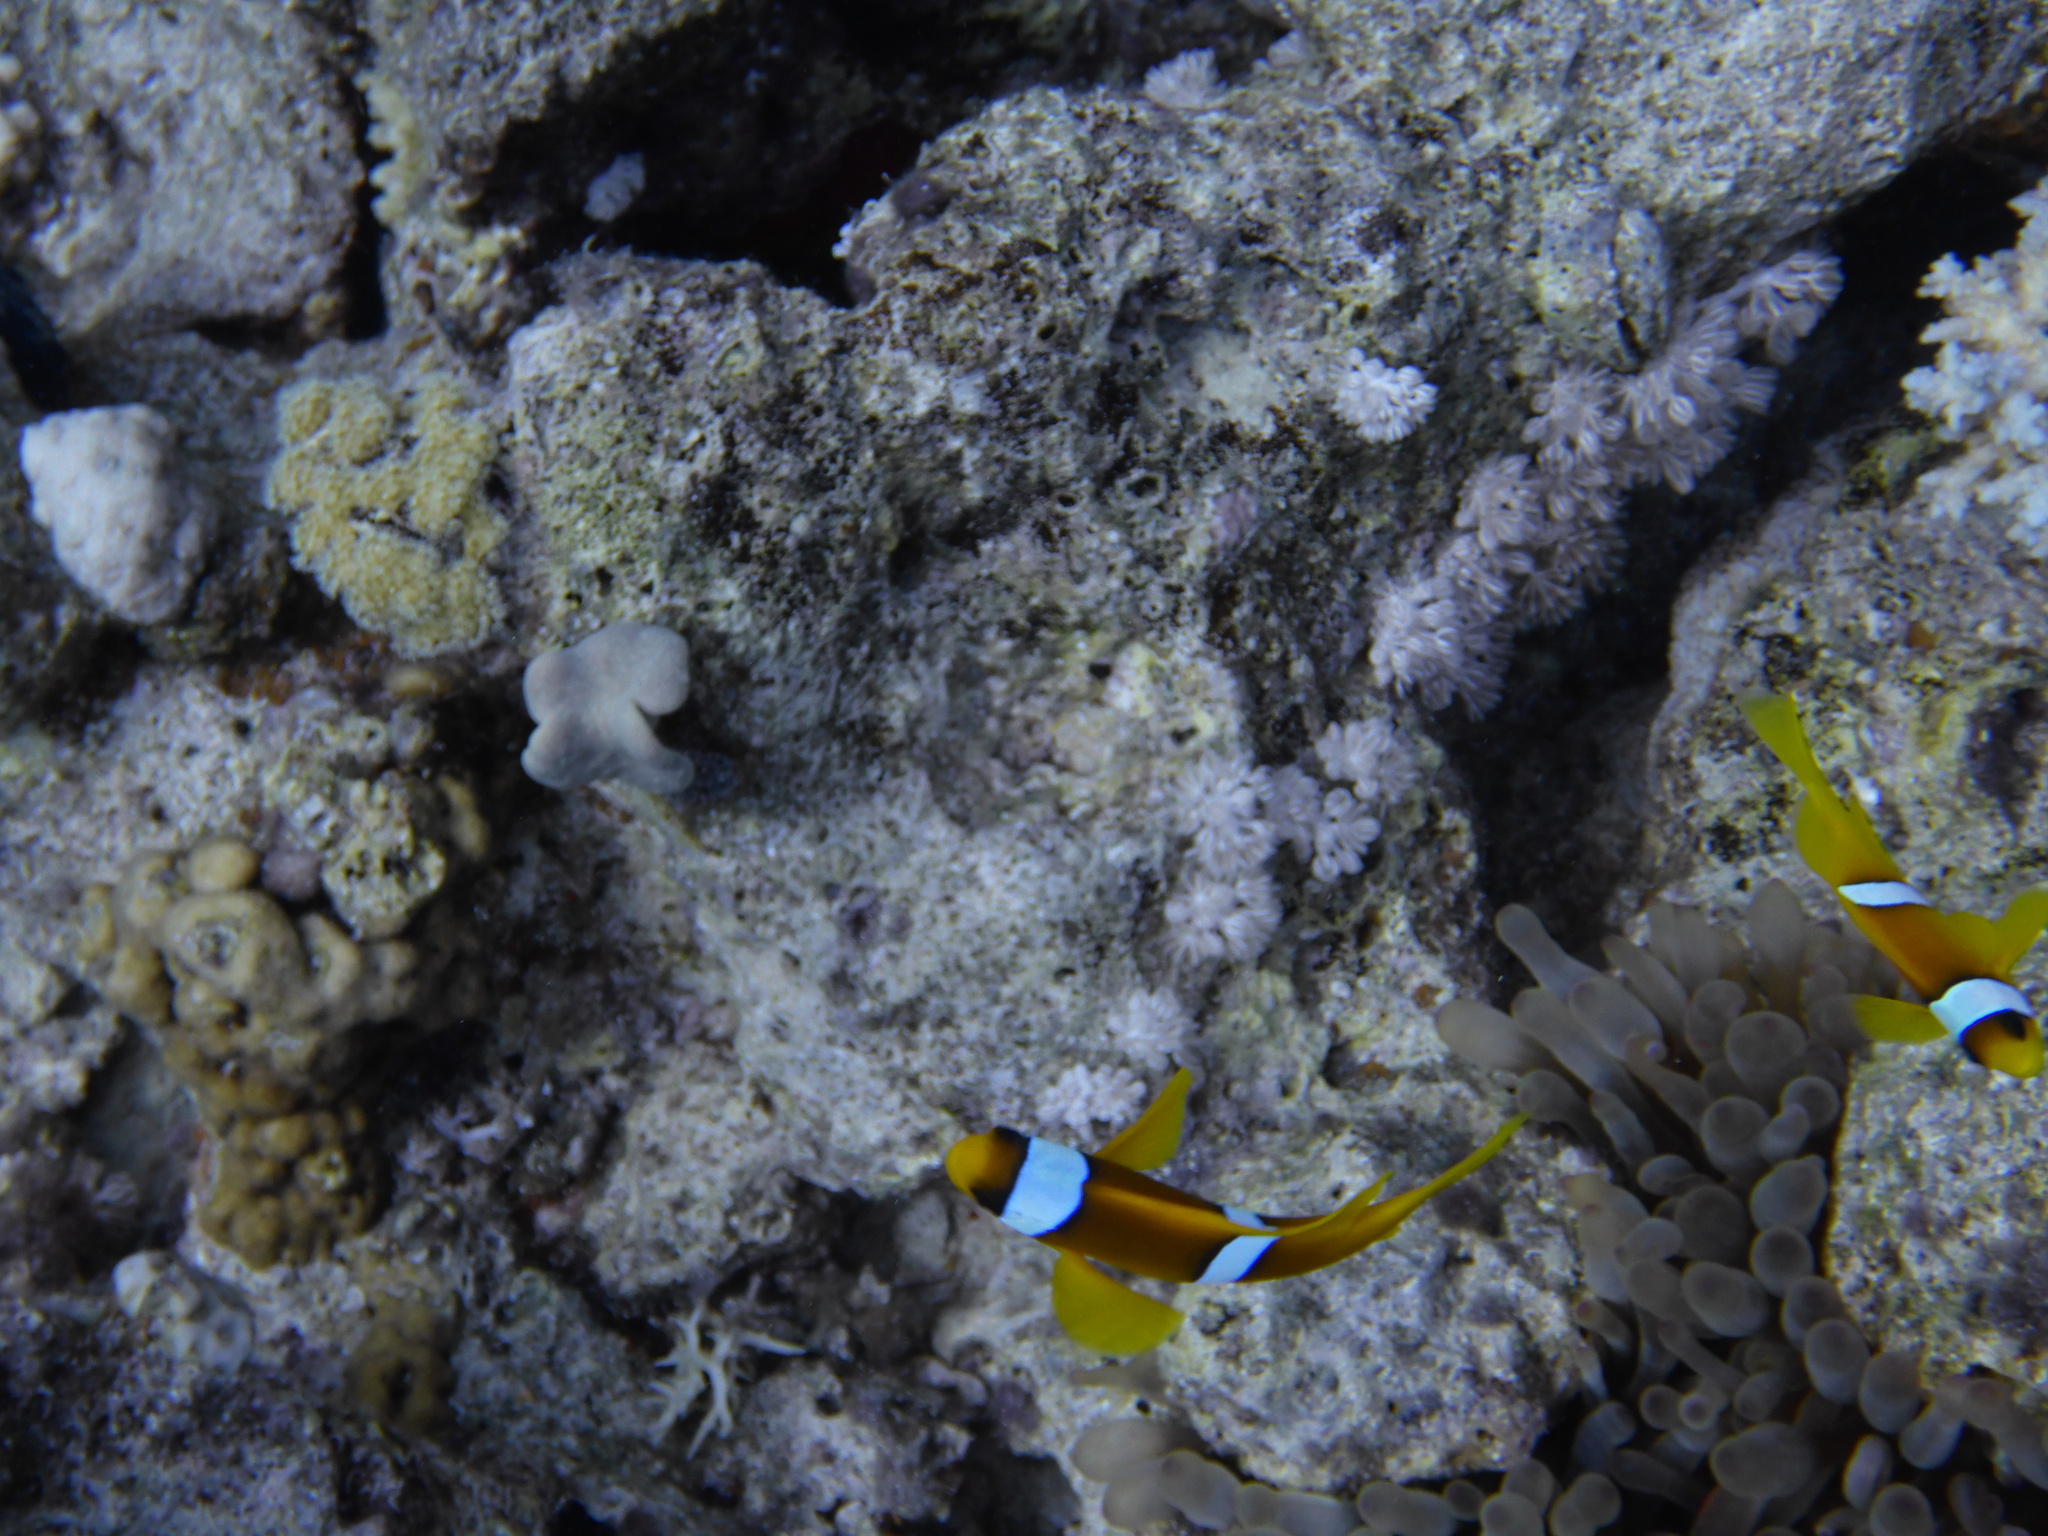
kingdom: Animalia
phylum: Chordata
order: Perciformes
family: Pomacentridae
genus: Amphiprion
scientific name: Amphiprion bicinctus
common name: Two-banded anemonefish
